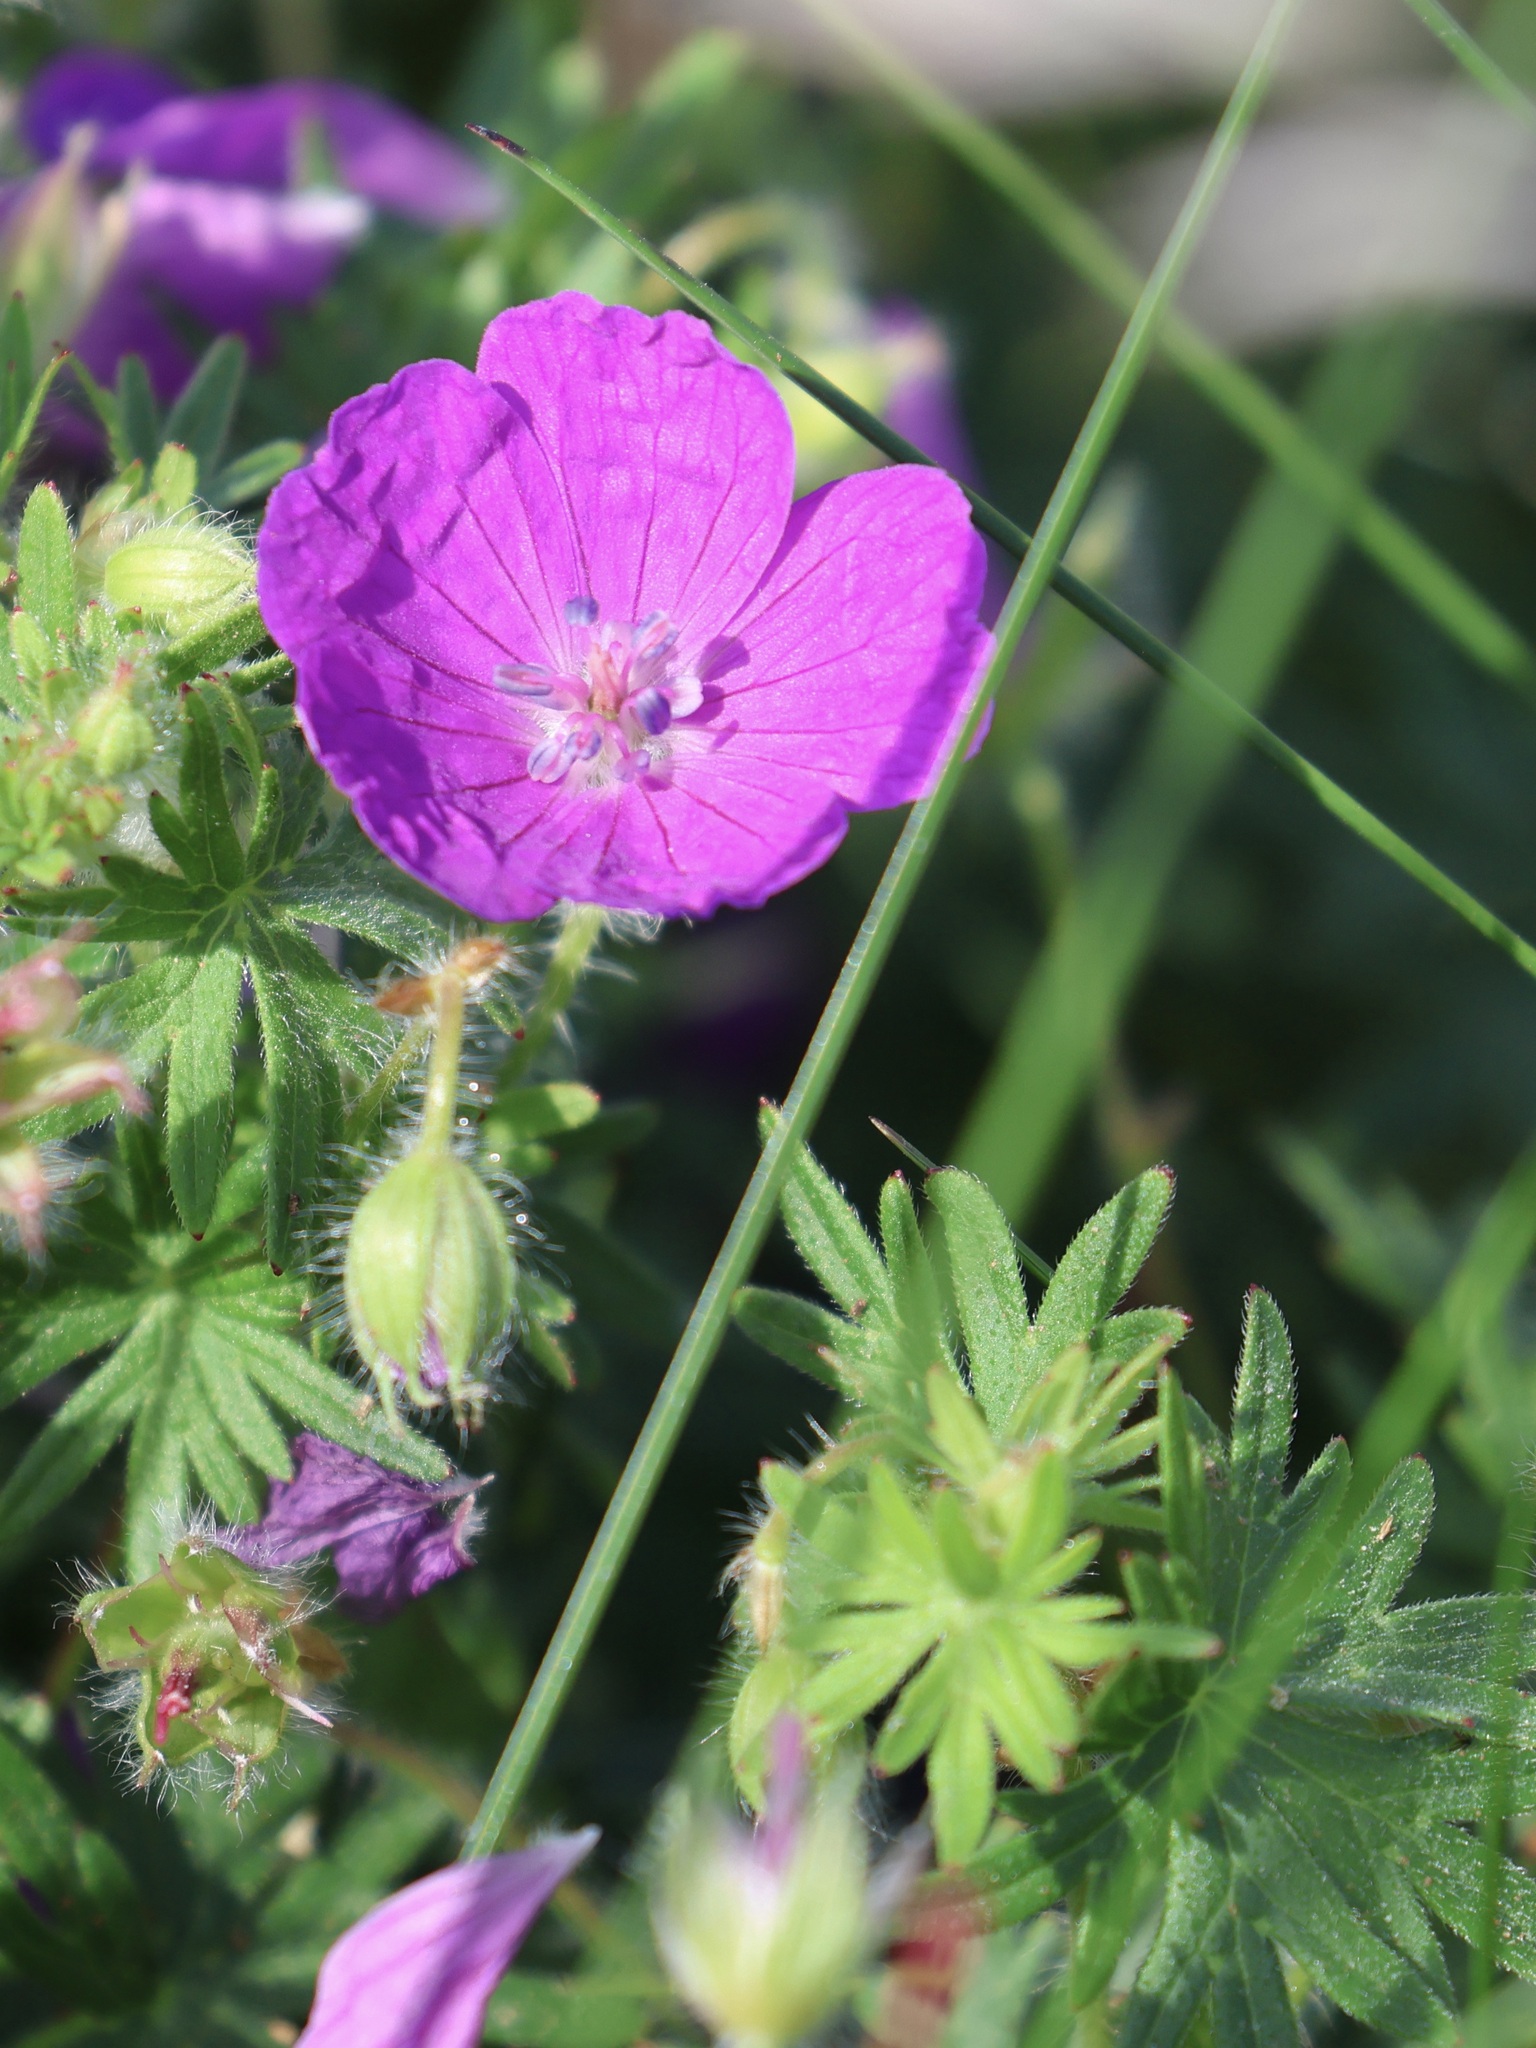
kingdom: Plantae
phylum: Tracheophyta
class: Magnoliopsida
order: Geraniales
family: Geraniaceae
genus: Geranium
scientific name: Geranium sanguineum
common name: Bloody crane's-bill
